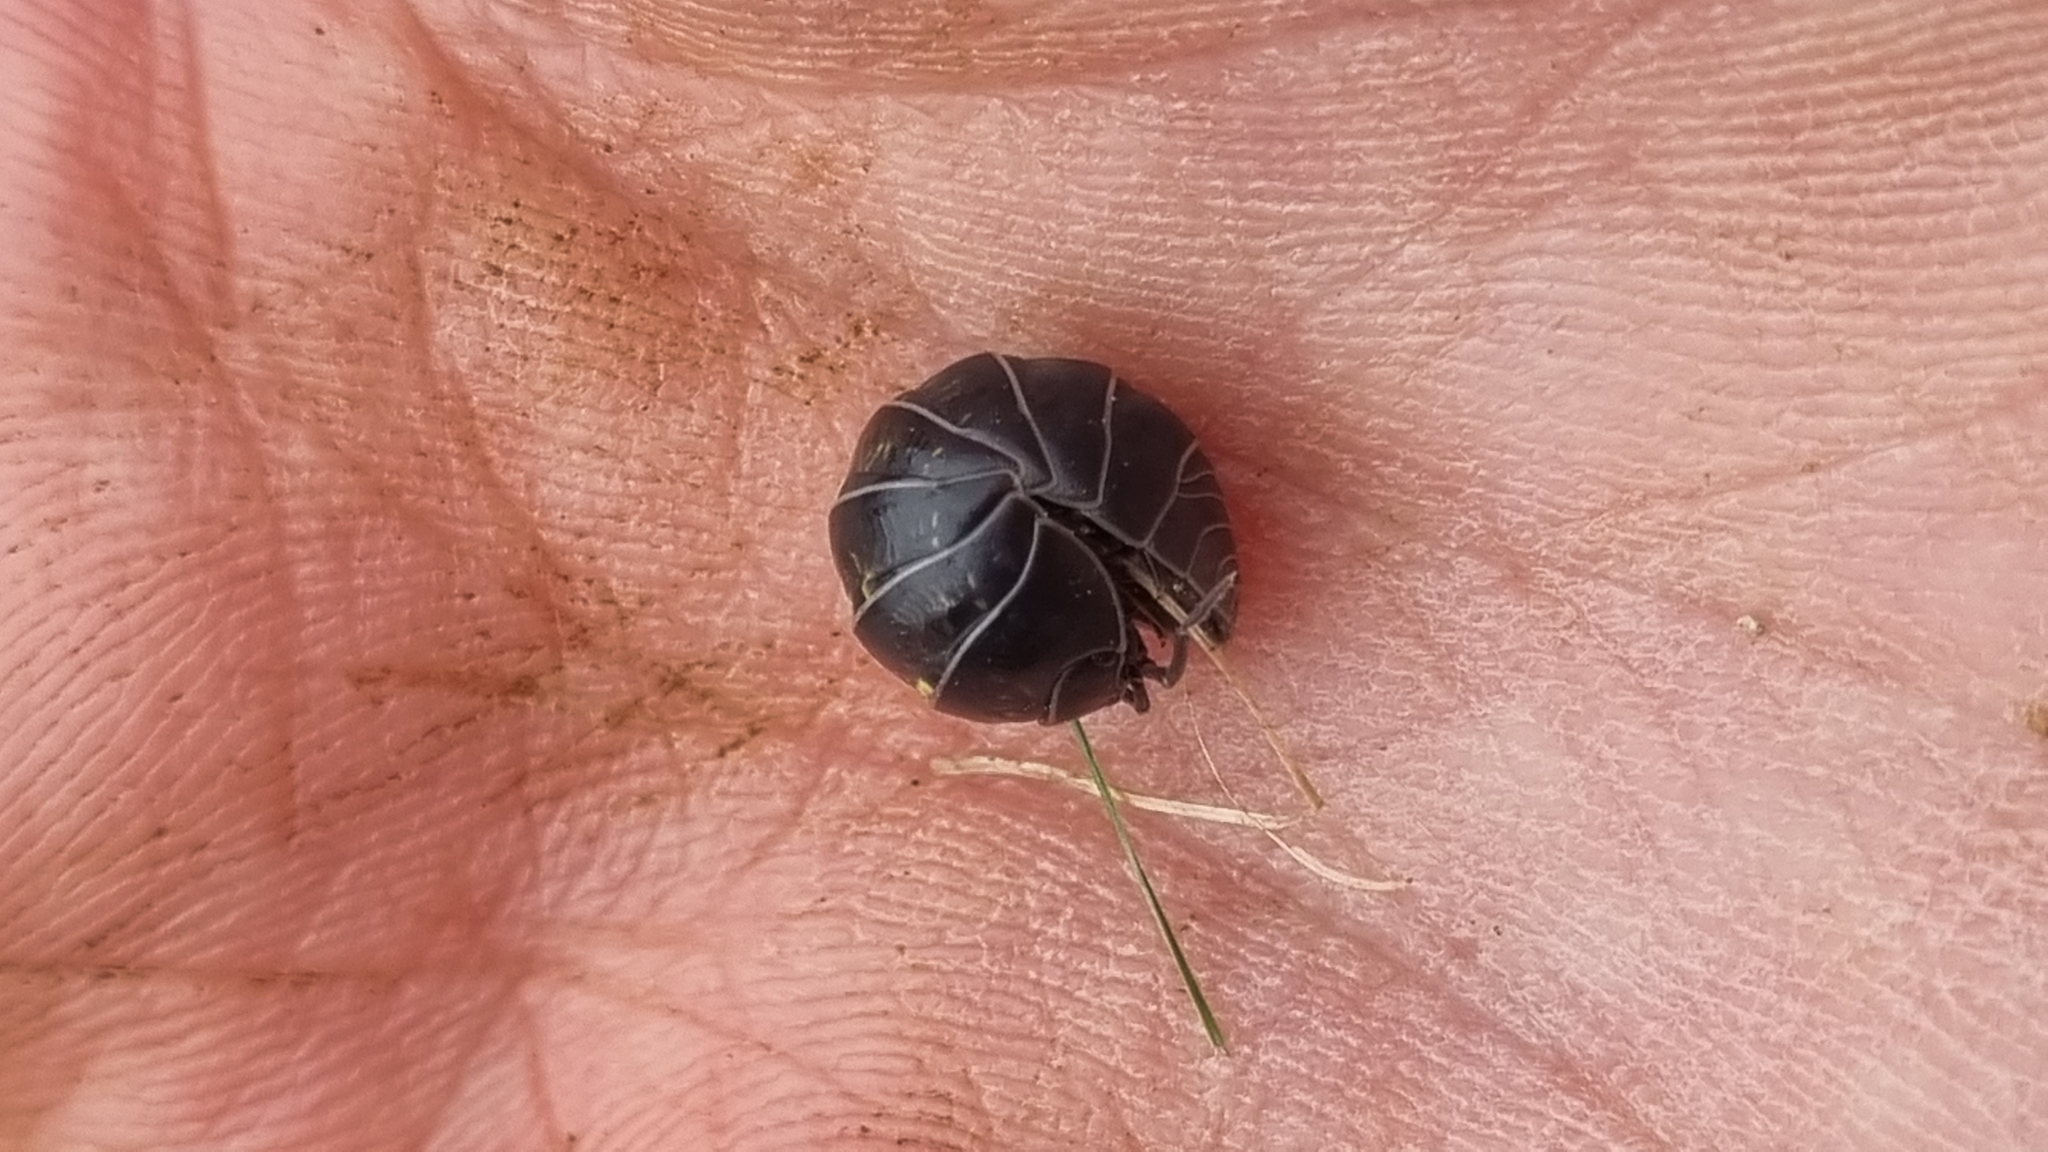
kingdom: Animalia
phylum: Arthropoda
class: Malacostraca
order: Isopoda
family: Armadillidiidae
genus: Armadillidium
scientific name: Armadillidium vulgare
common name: Common pill woodlouse
